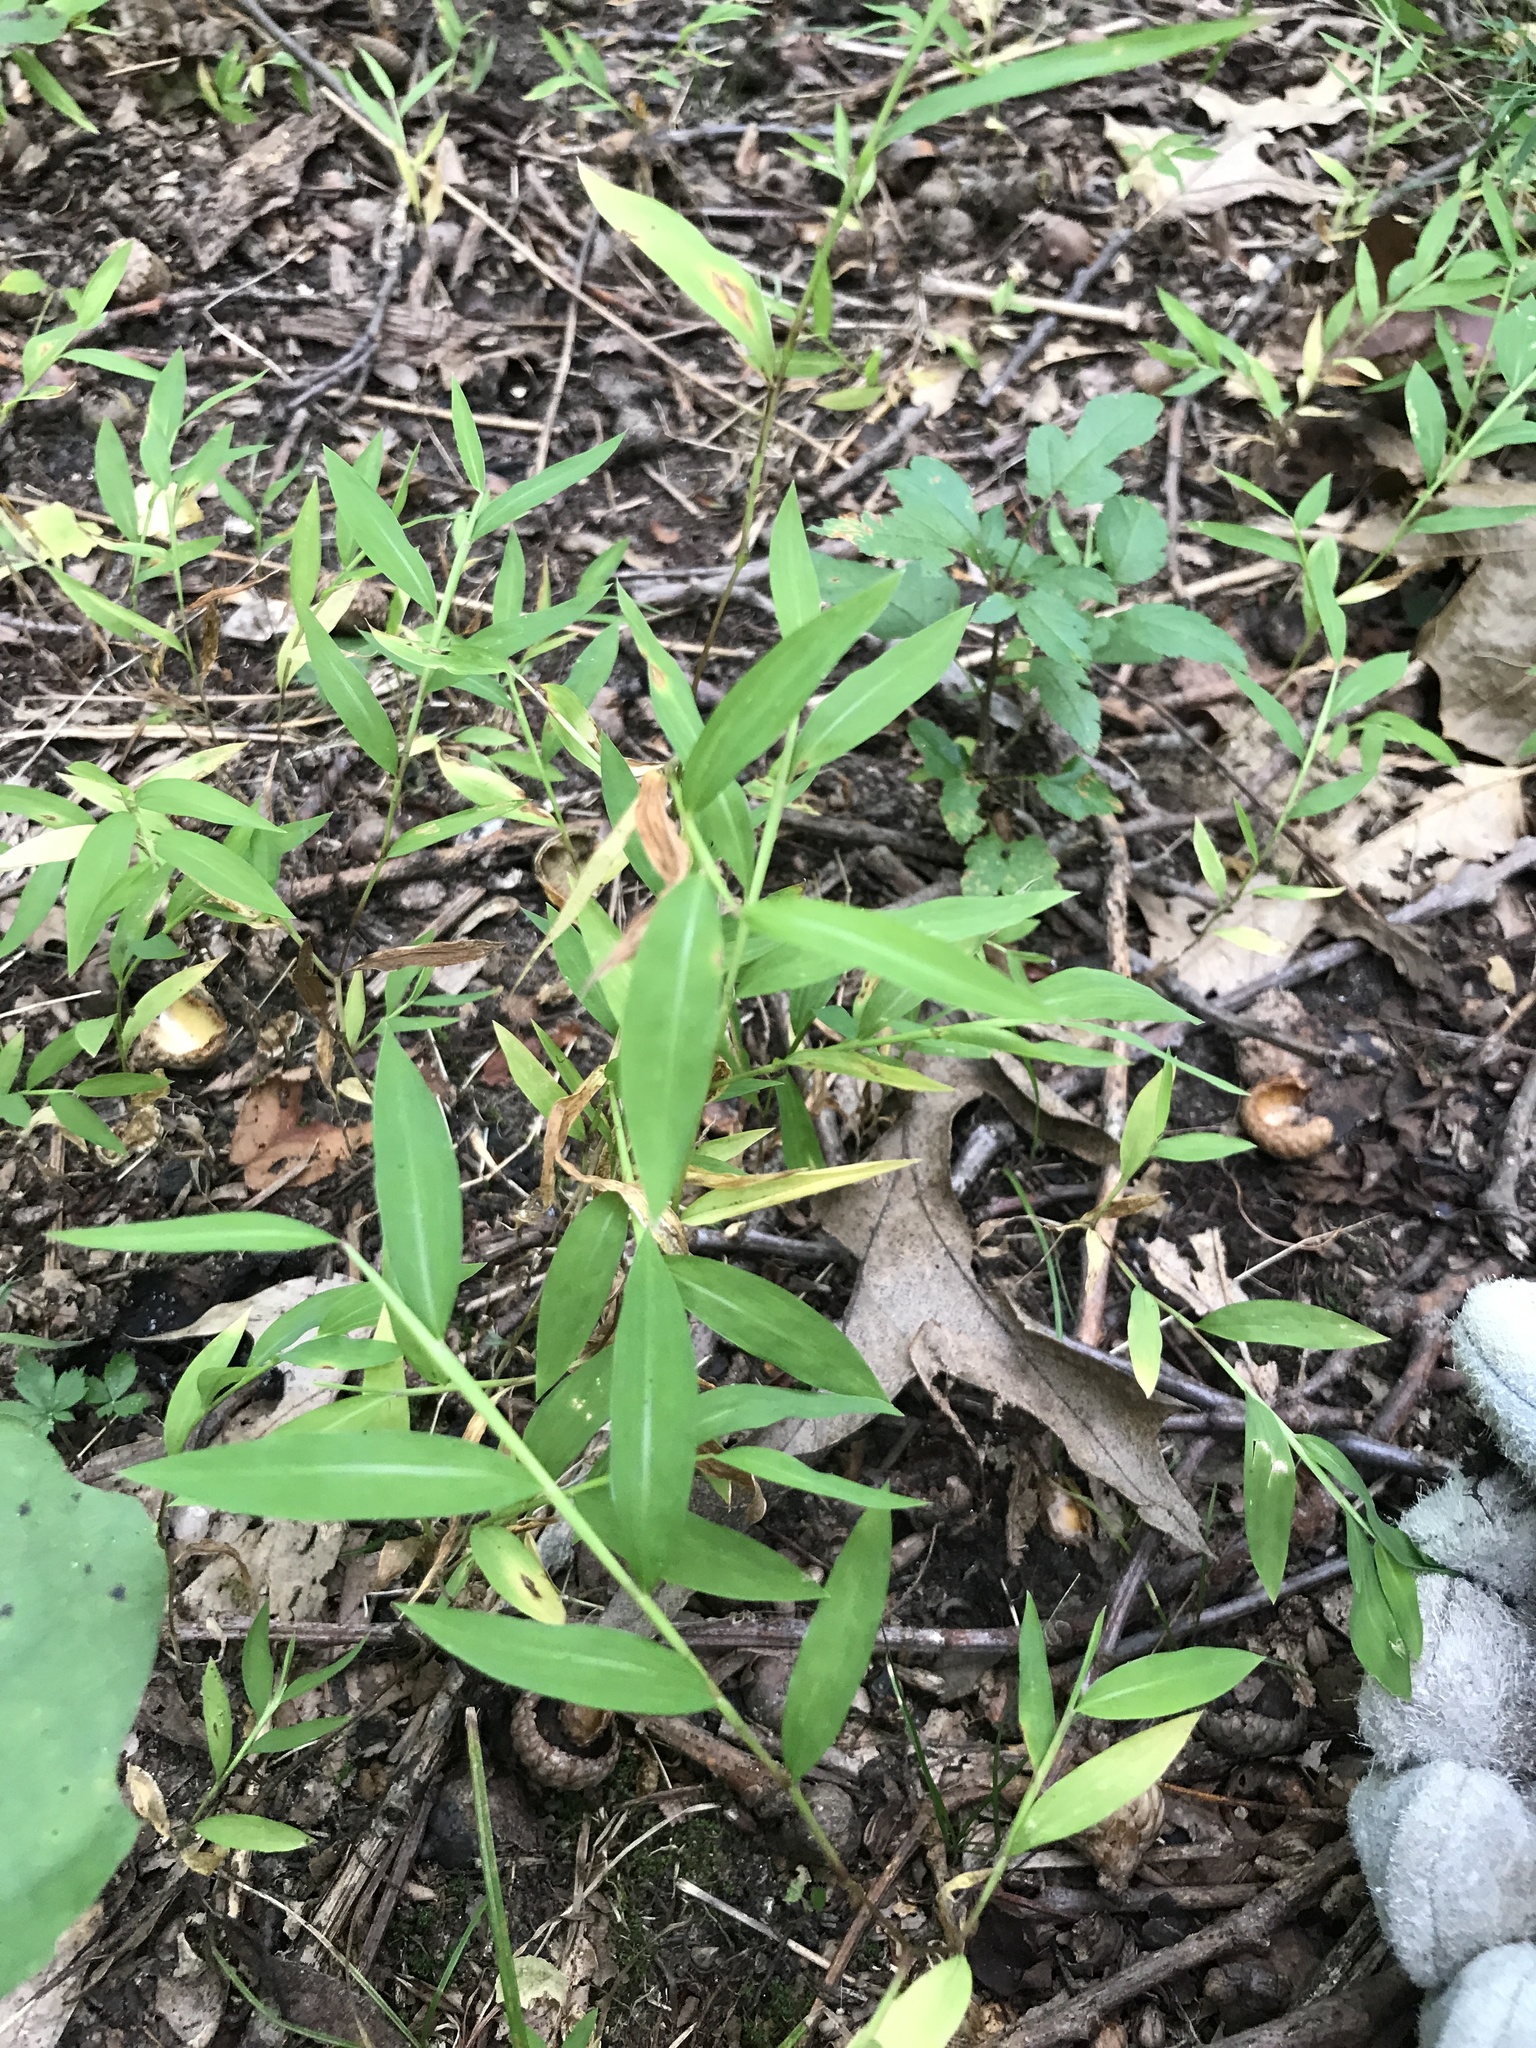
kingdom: Plantae
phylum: Tracheophyta
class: Liliopsida
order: Poales
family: Poaceae
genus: Microstegium
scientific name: Microstegium vimineum
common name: Japanese stiltgrass
